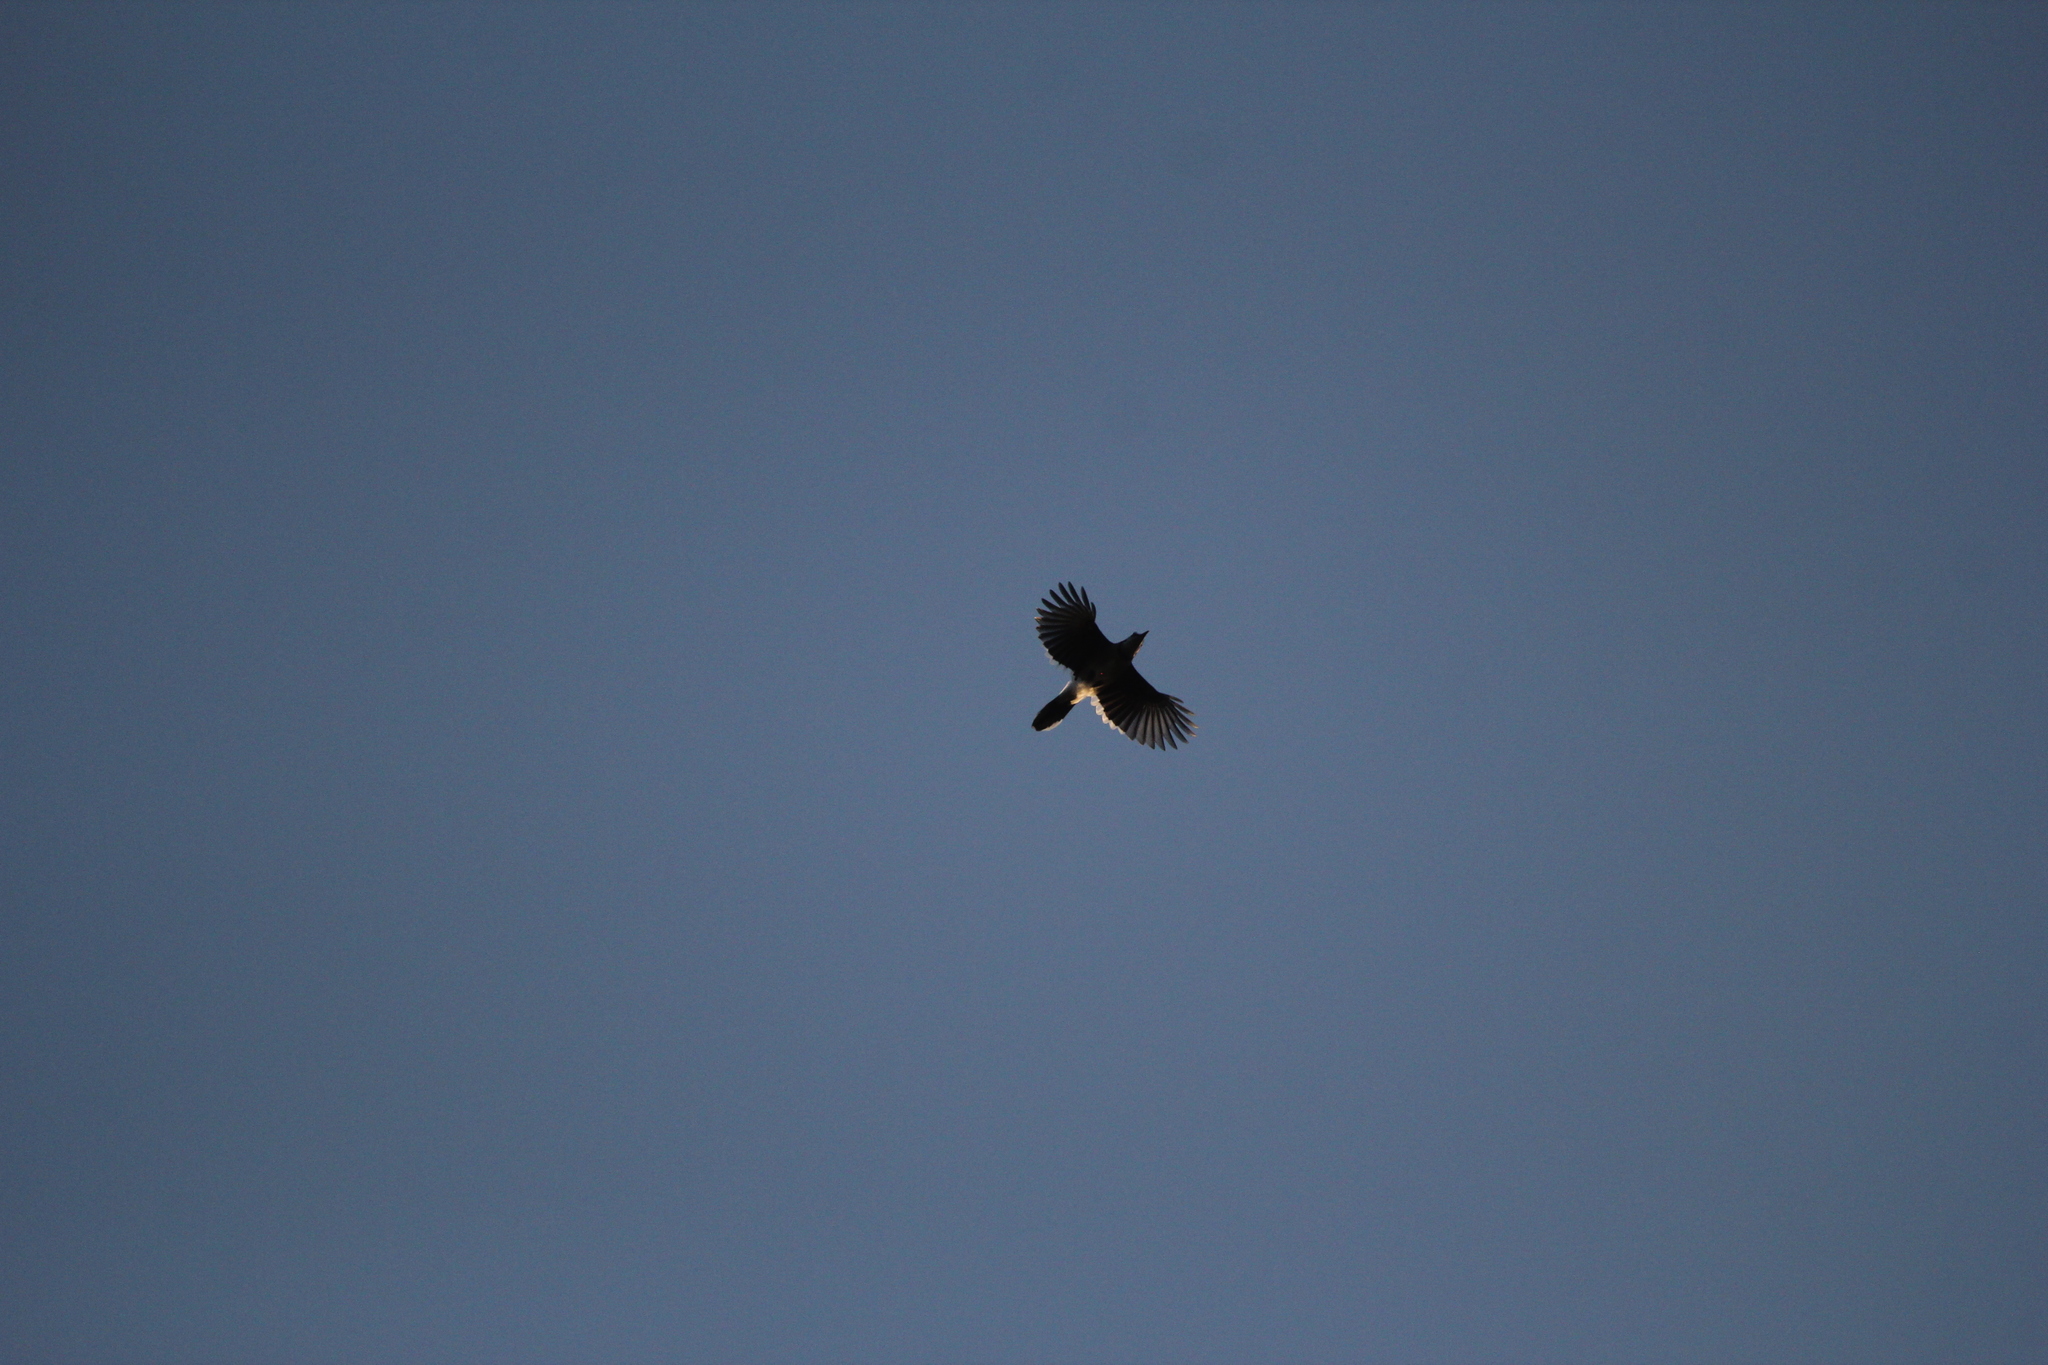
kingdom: Animalia
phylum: Chordata
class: Aves
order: Passeriformes
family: Corvidae
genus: Cyanocitta
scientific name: Cyanocitta cristata
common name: Blue jay
